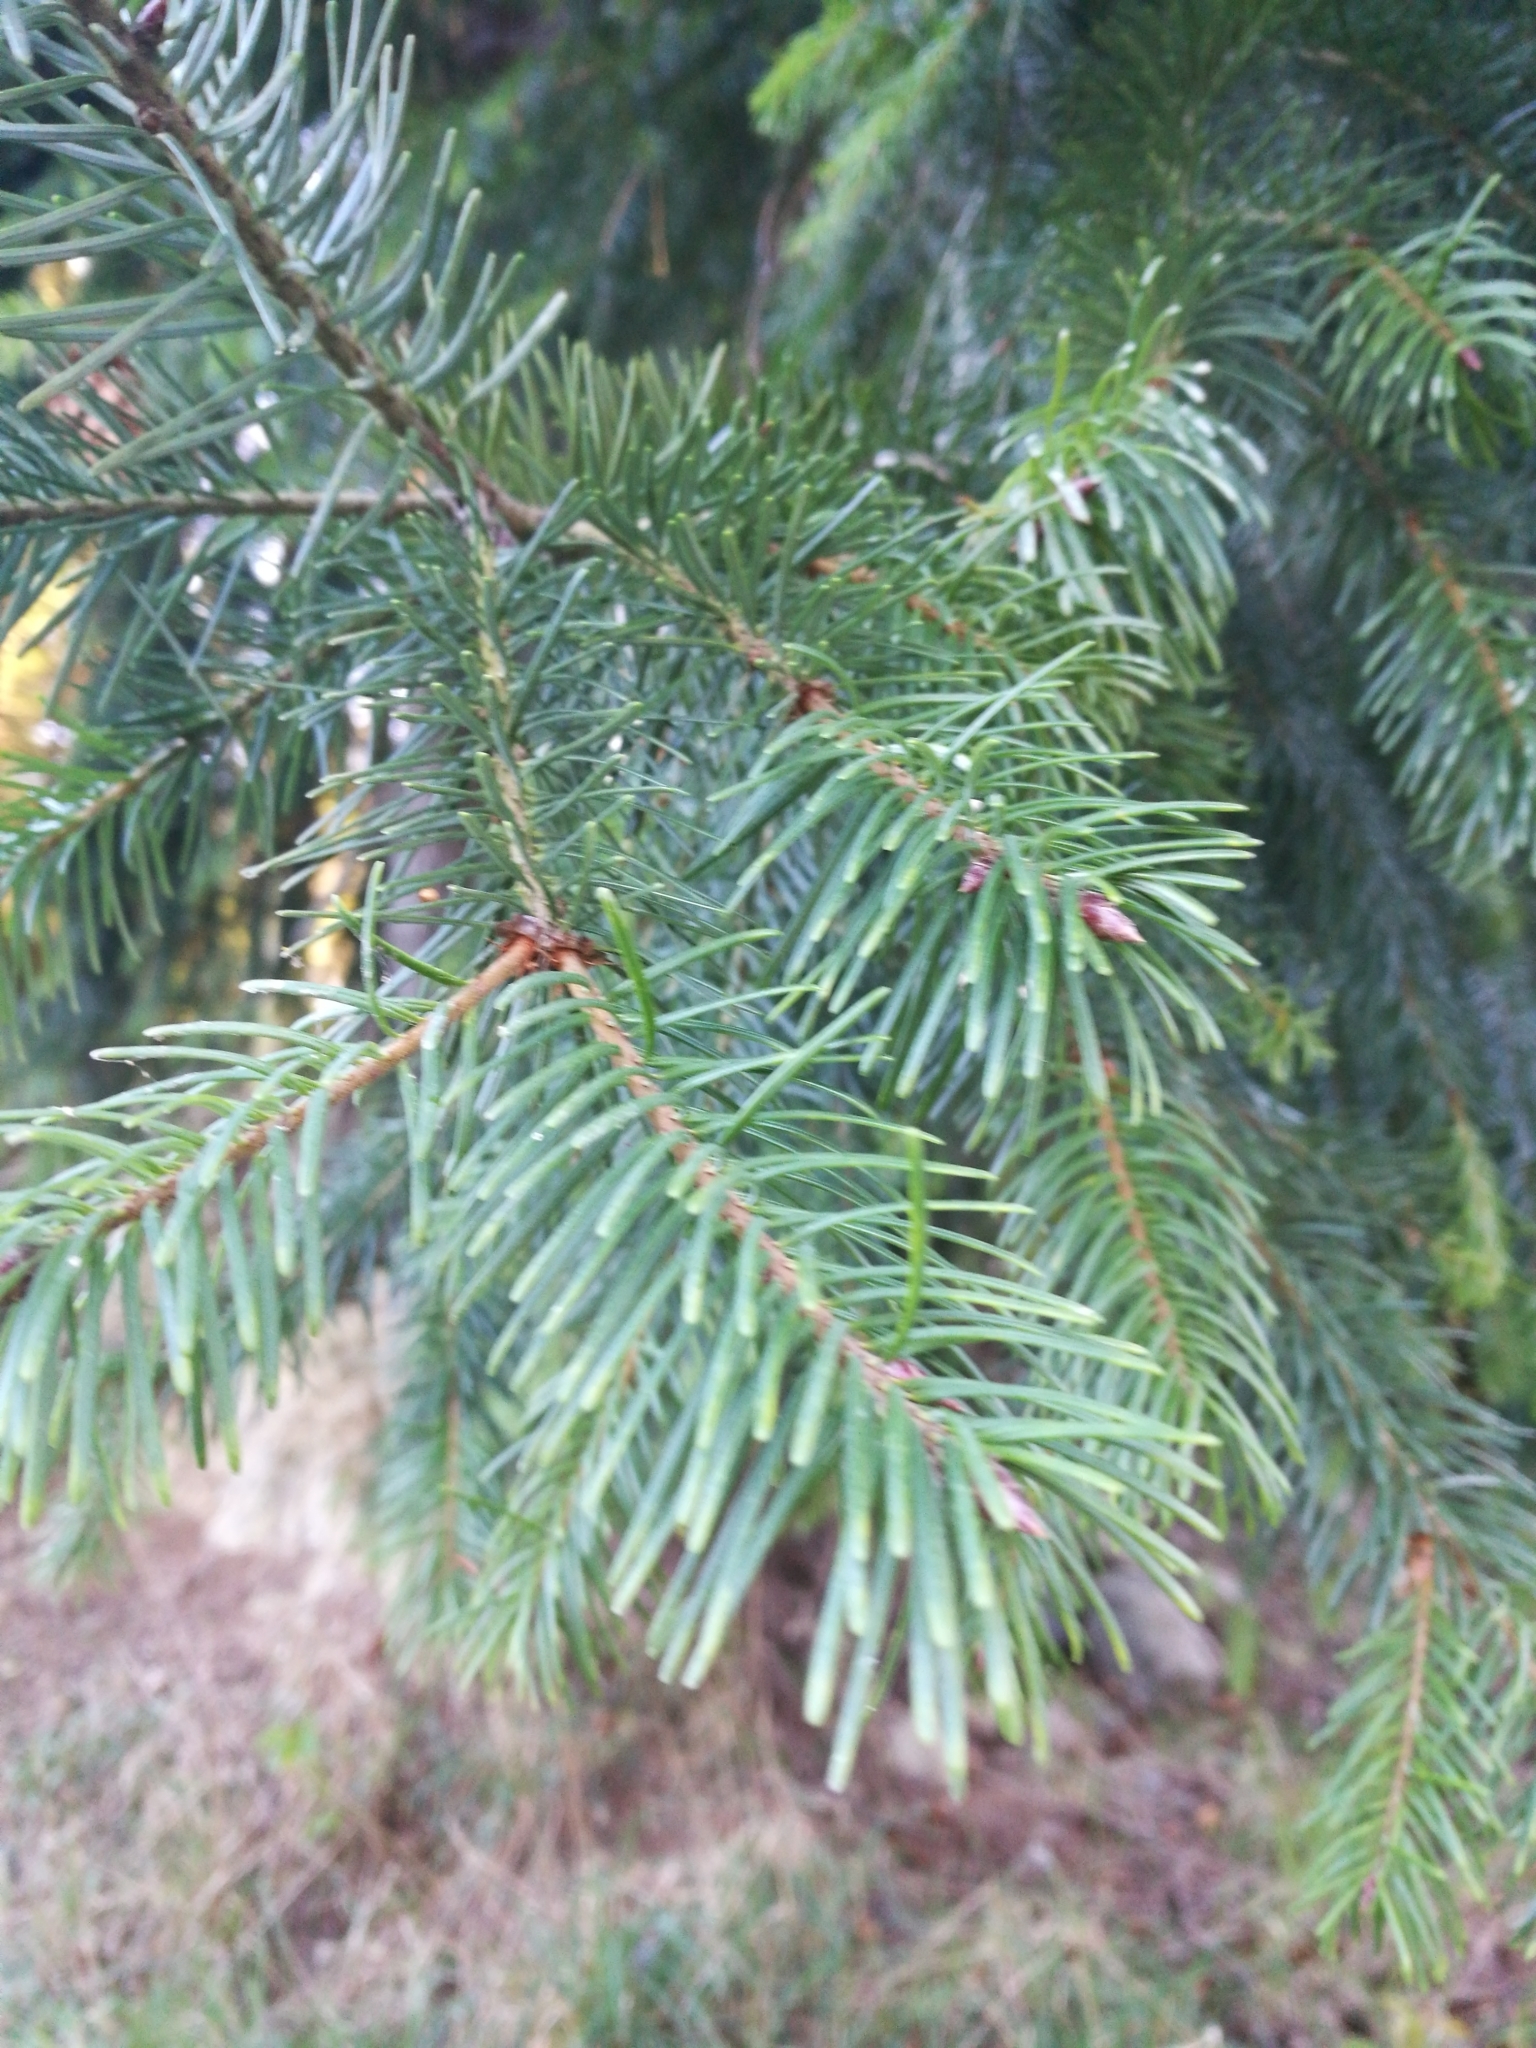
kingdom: Plantae
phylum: Tracheophyta
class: Pinopsida
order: Pinales
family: Pinaceae
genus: Pseudotsuga
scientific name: Pseudotsuga menziesii
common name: Douglas fir
